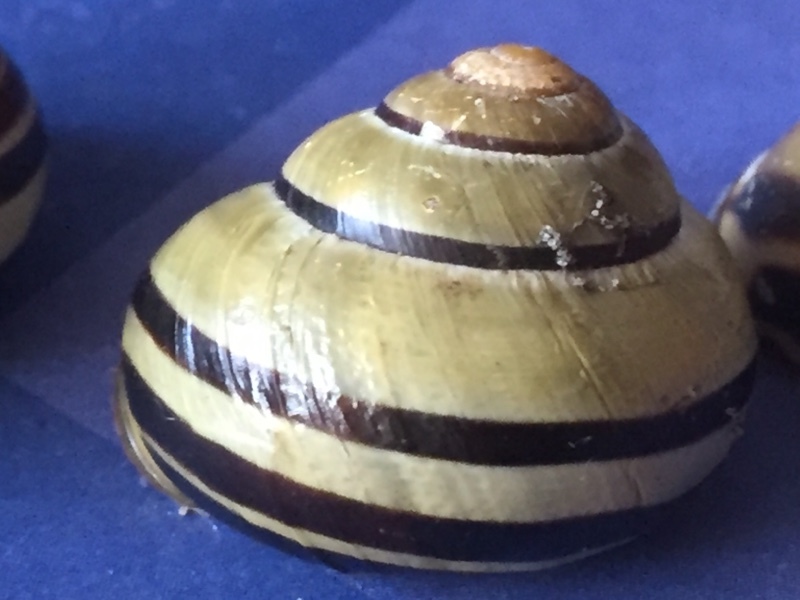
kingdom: Animalia
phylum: Mollusca
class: Gastropoda
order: Stylommatophora
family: Helicidae
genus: Cepaea
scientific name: Cepaea nemoralis
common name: Grovesnail
